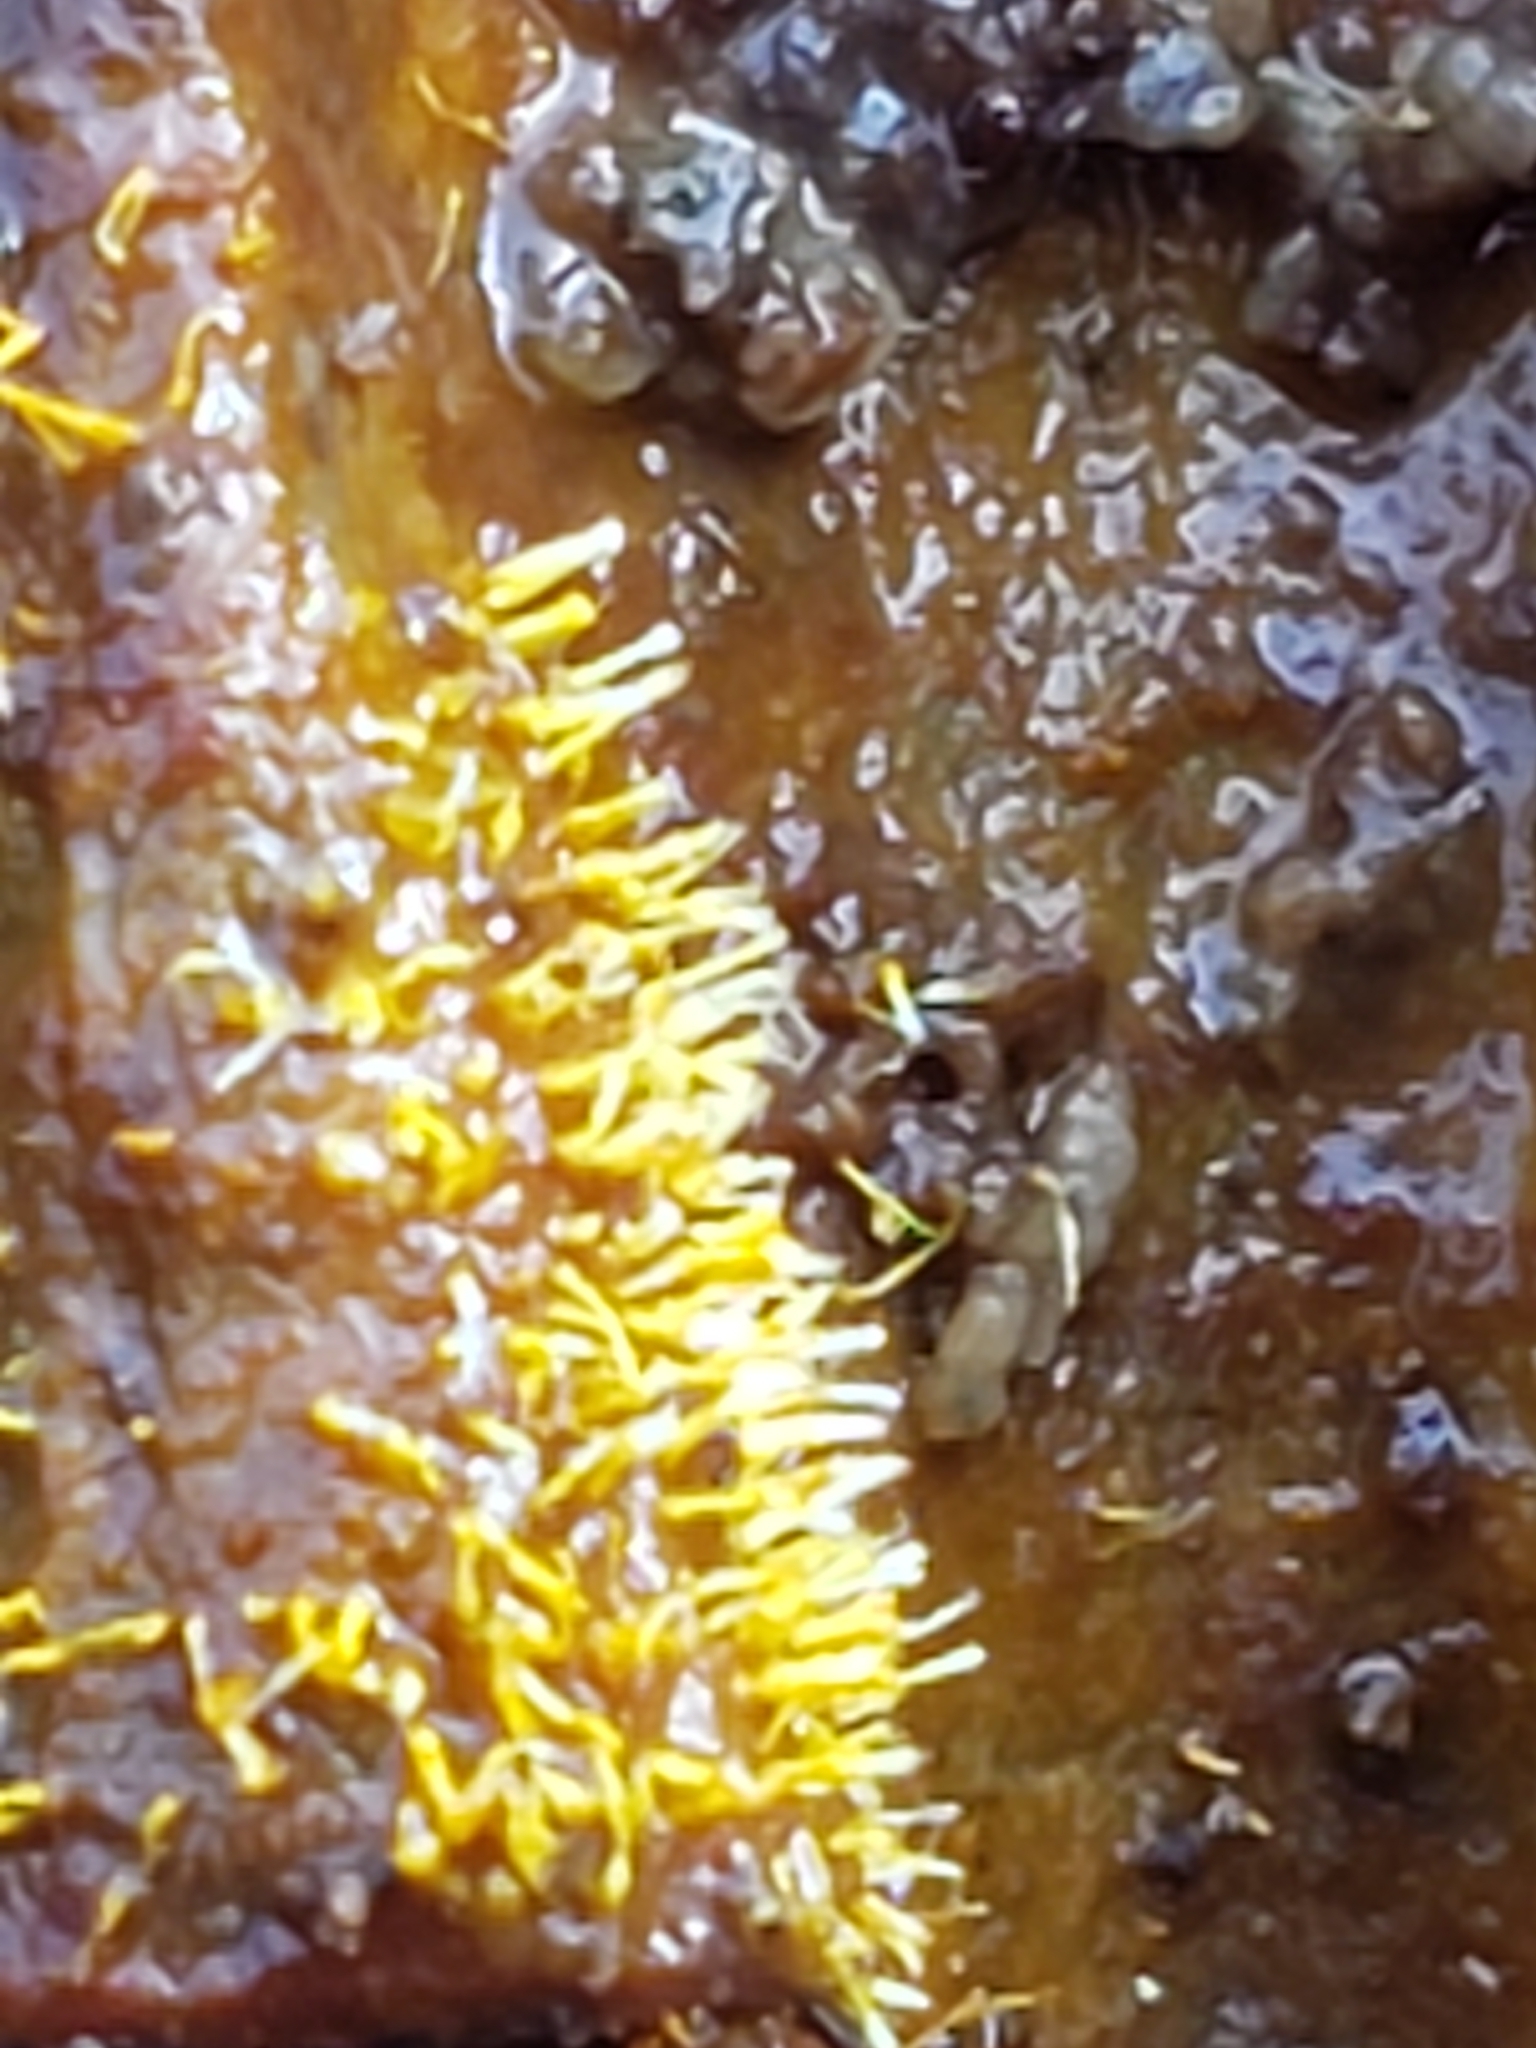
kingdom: Fungi
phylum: Ascomycota
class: Sordariomycetes
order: Hypocreales
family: Hypocreaceae
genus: Sphaerostilbella
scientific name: Sphaerostilbella aurifila
